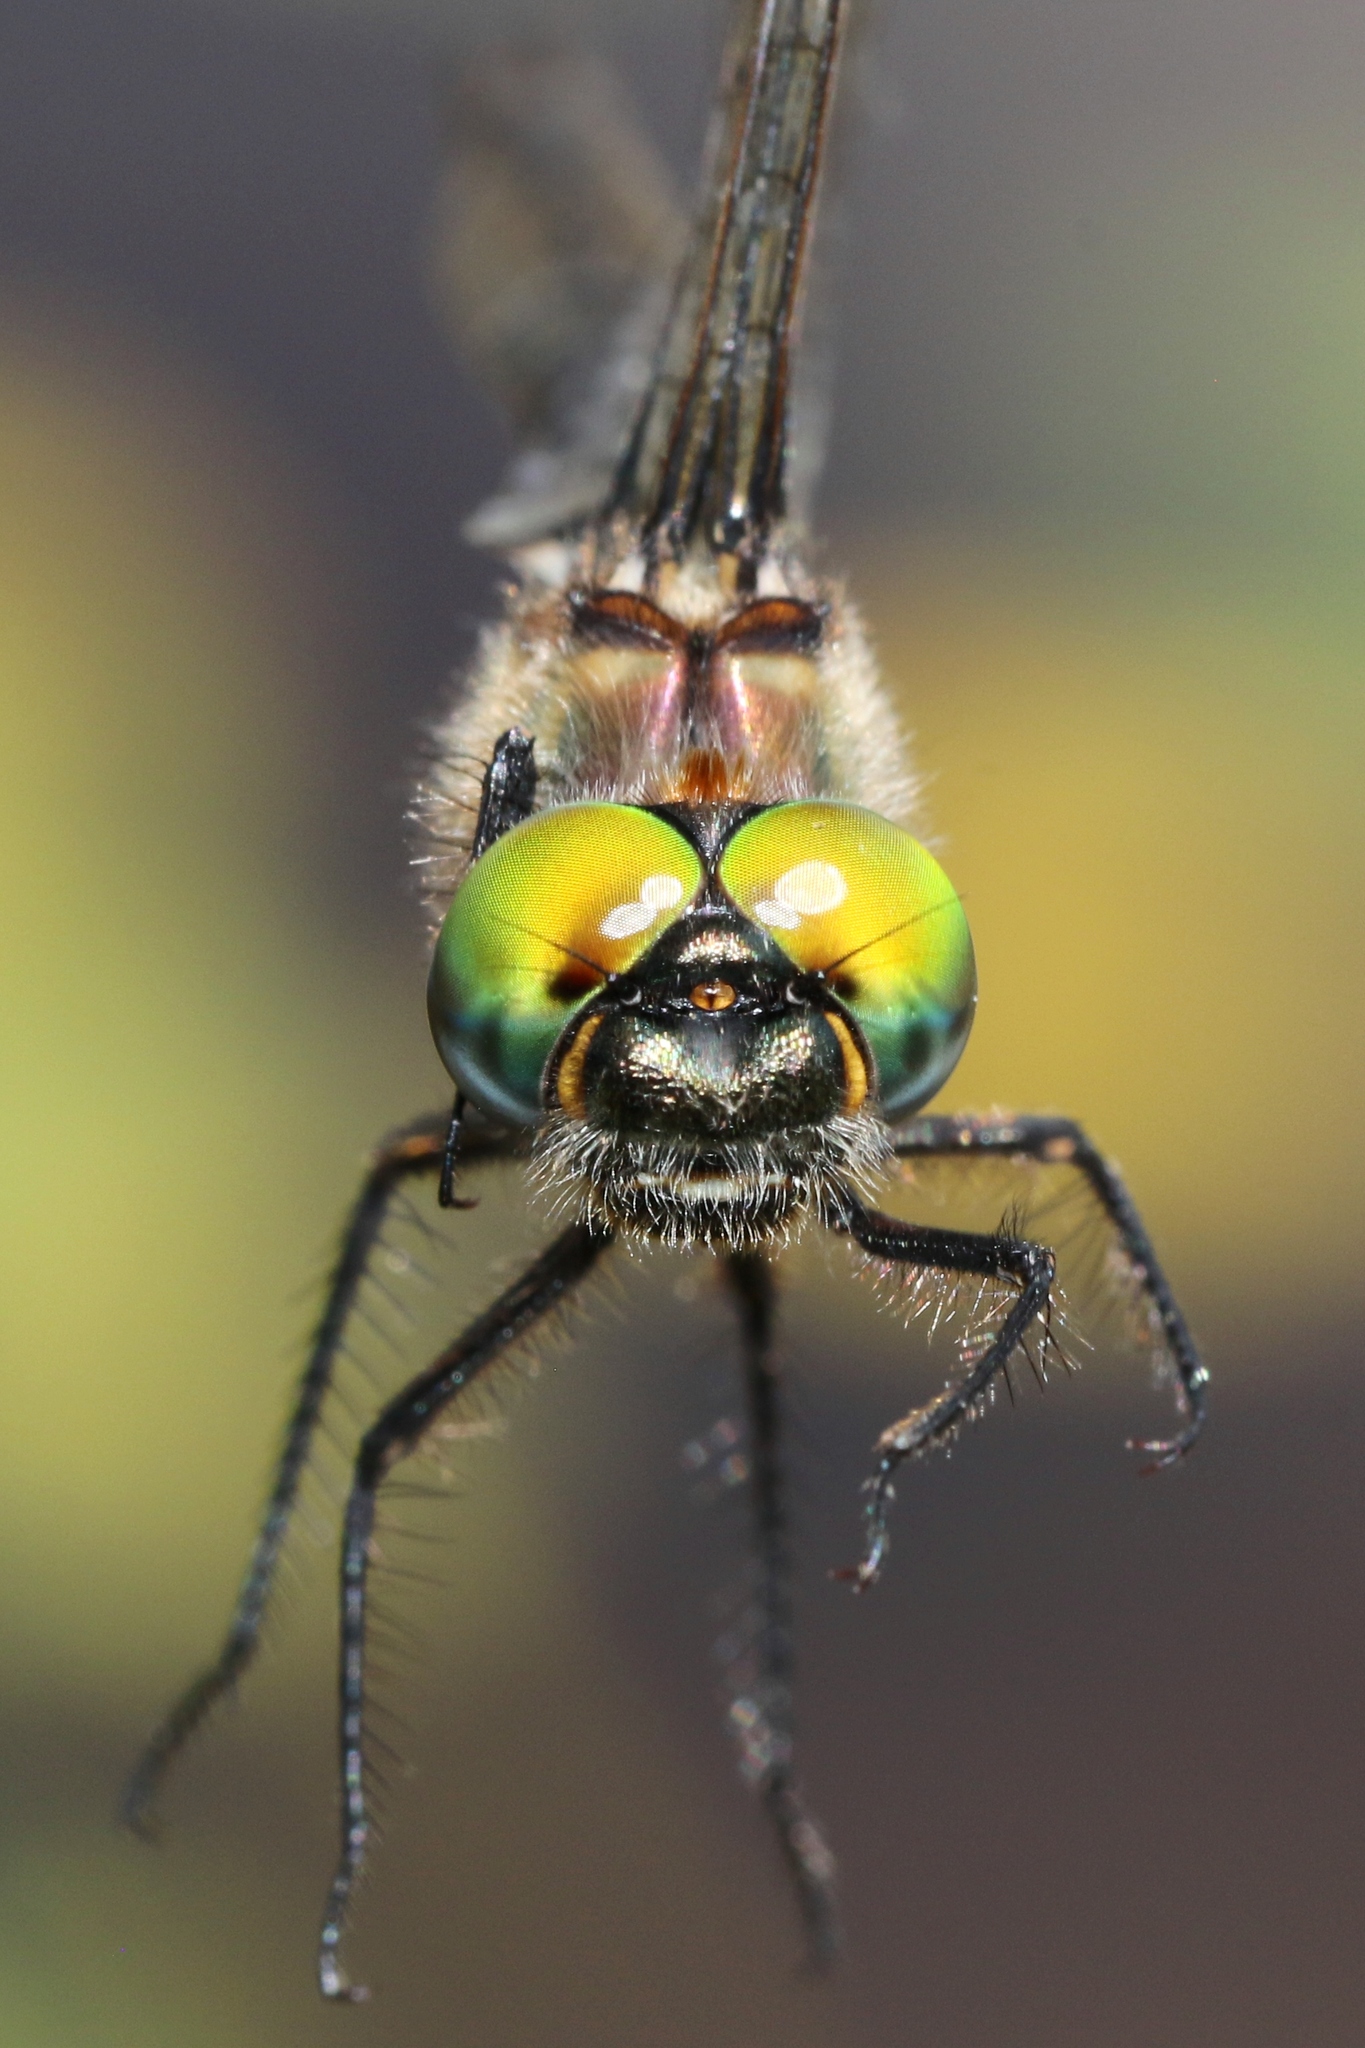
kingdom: Animalia
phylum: Arthropoda
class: Insecta
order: Odonata
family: Corduliidae
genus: Somatochlora
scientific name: Somatochlora septentrionalis
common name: Muskeg emerald
